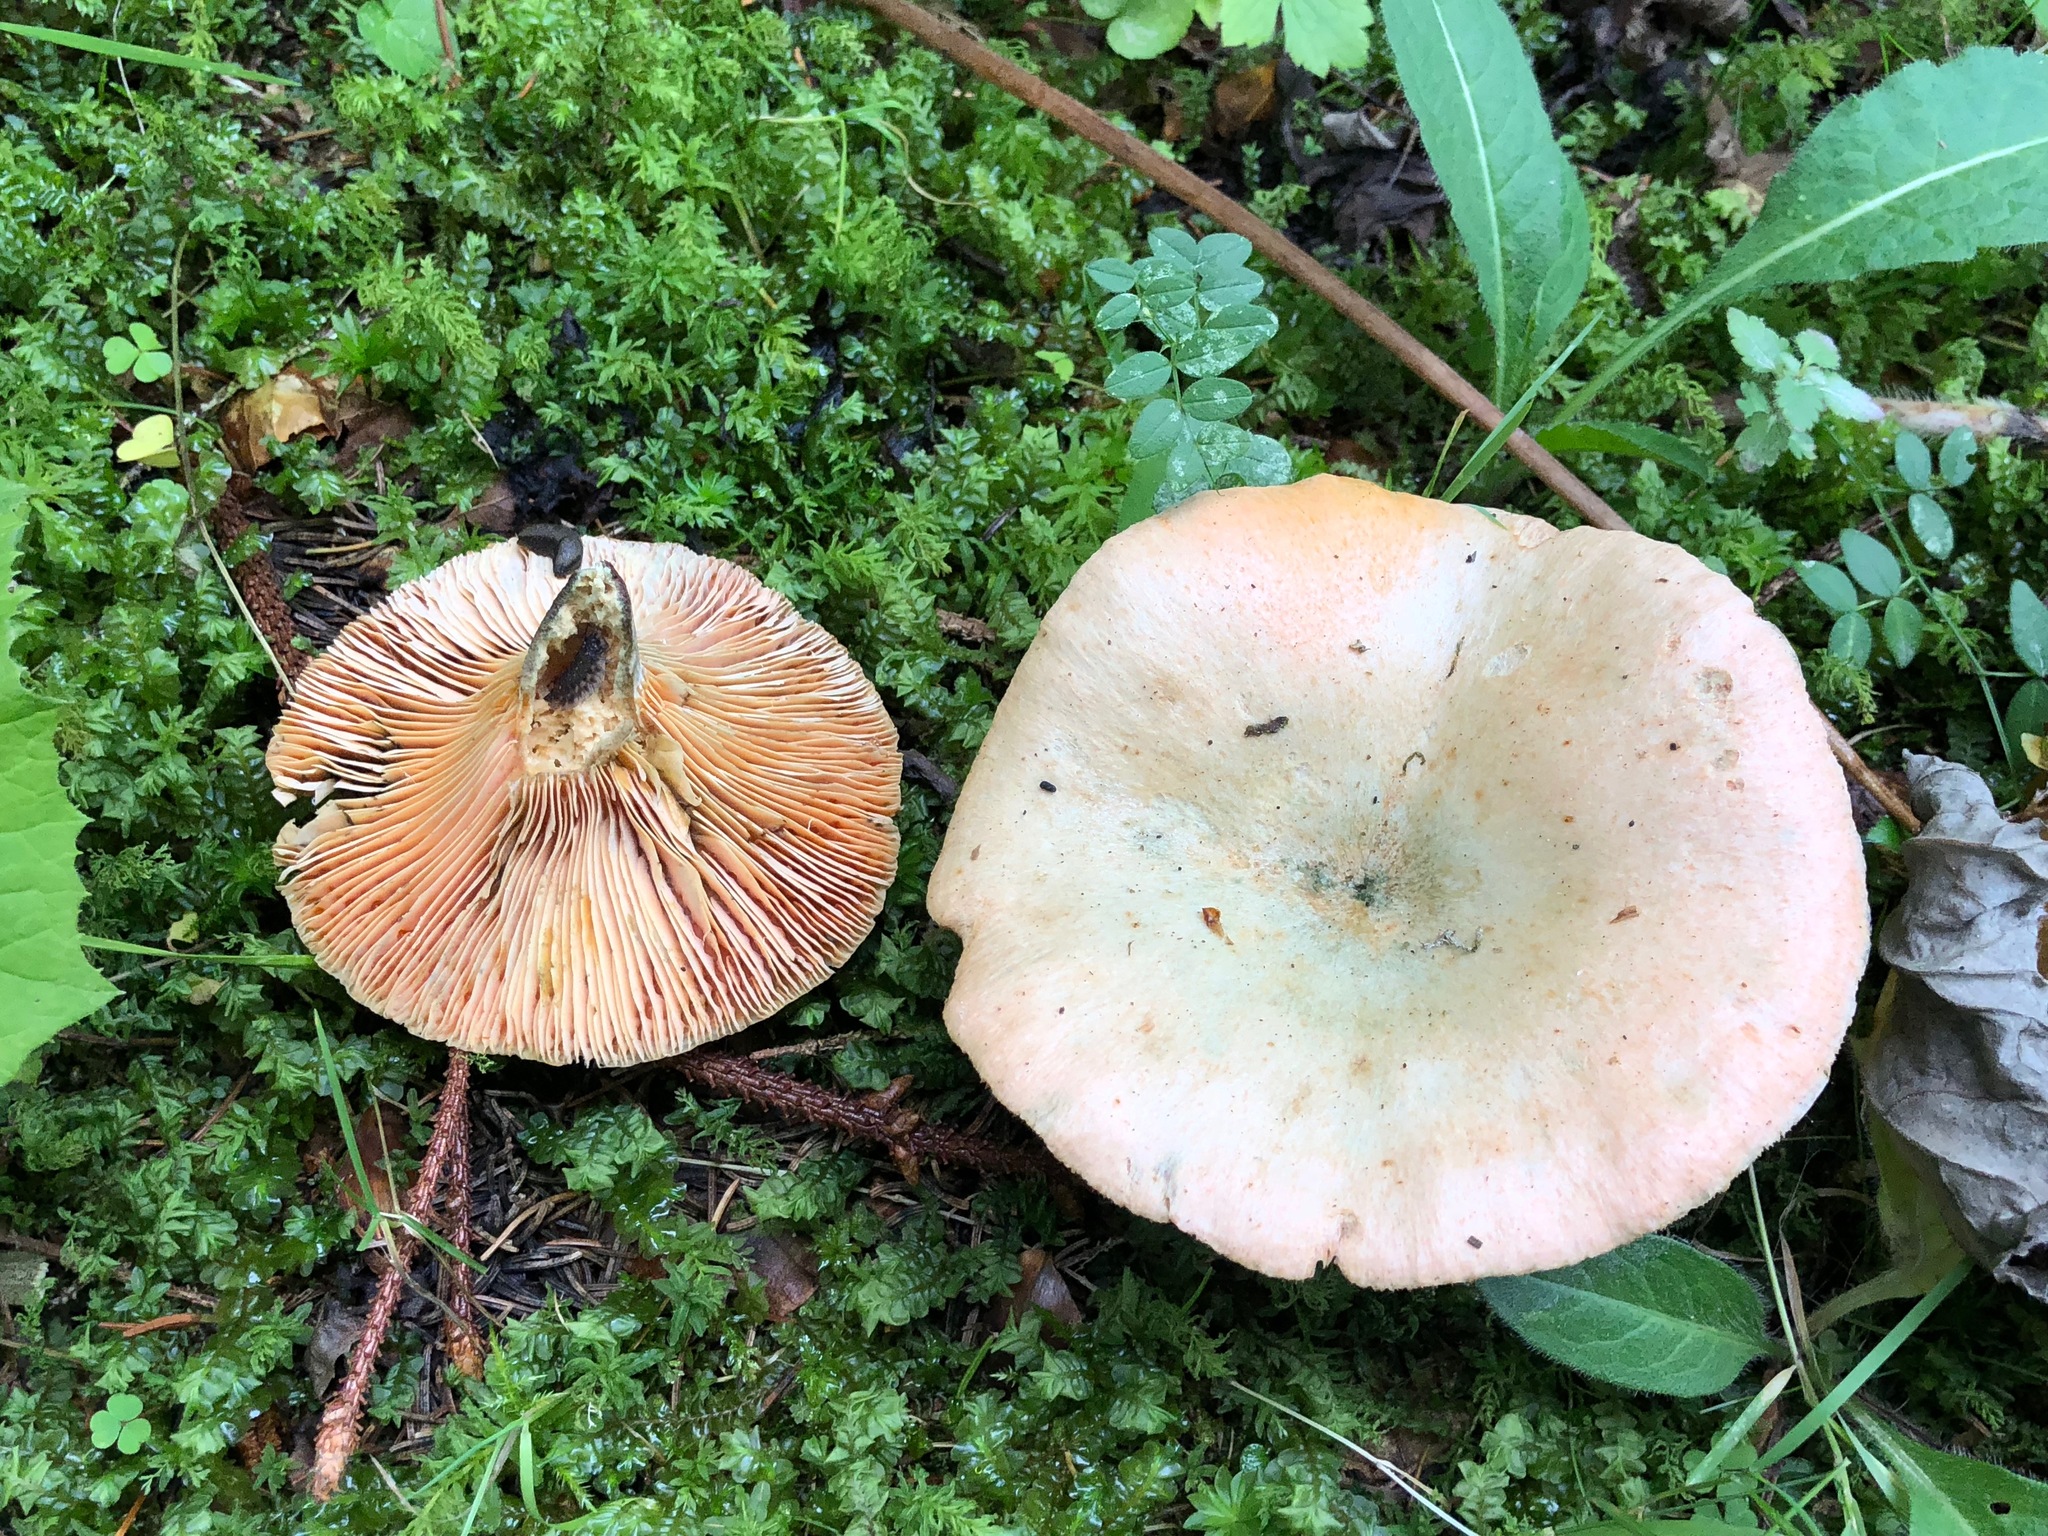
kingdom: Fungi
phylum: Basidiomycota
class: Agaricomycetes
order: Russulales
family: Russulaceae
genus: Lactarius
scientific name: Lactarius deterrimus
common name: False saffron milkcap
